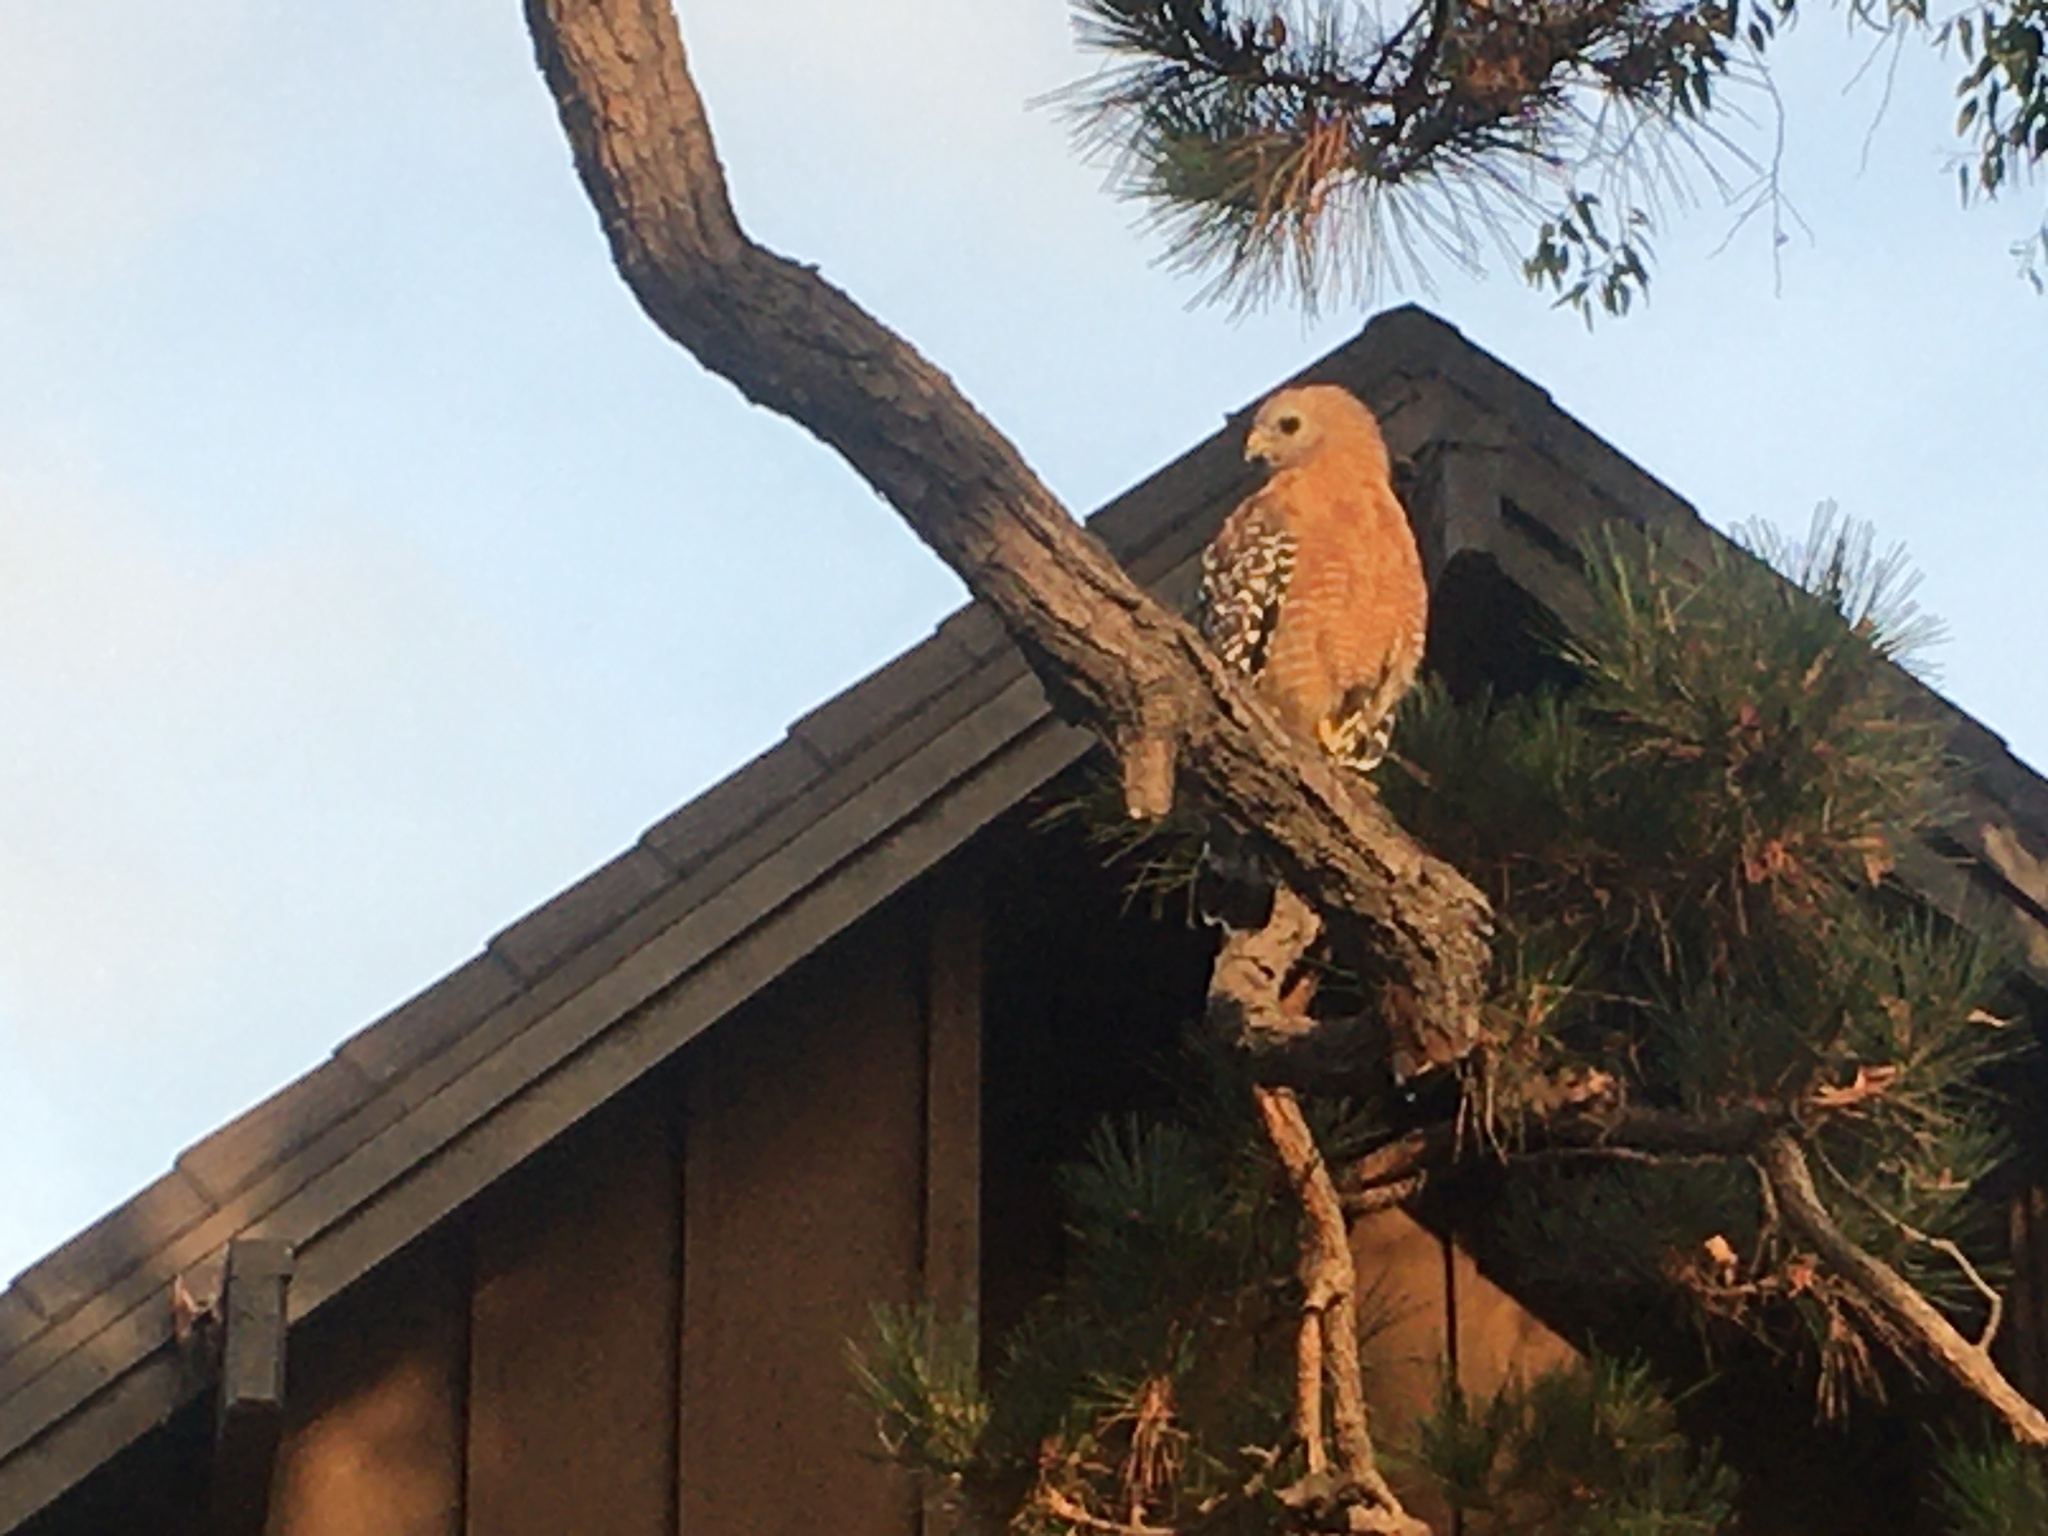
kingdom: Animalia
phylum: Chordata
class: Aves
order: Accipitriformes
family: Accipitridae
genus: Buteo
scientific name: Buteo lineatus
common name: Red-shouldered hawk
